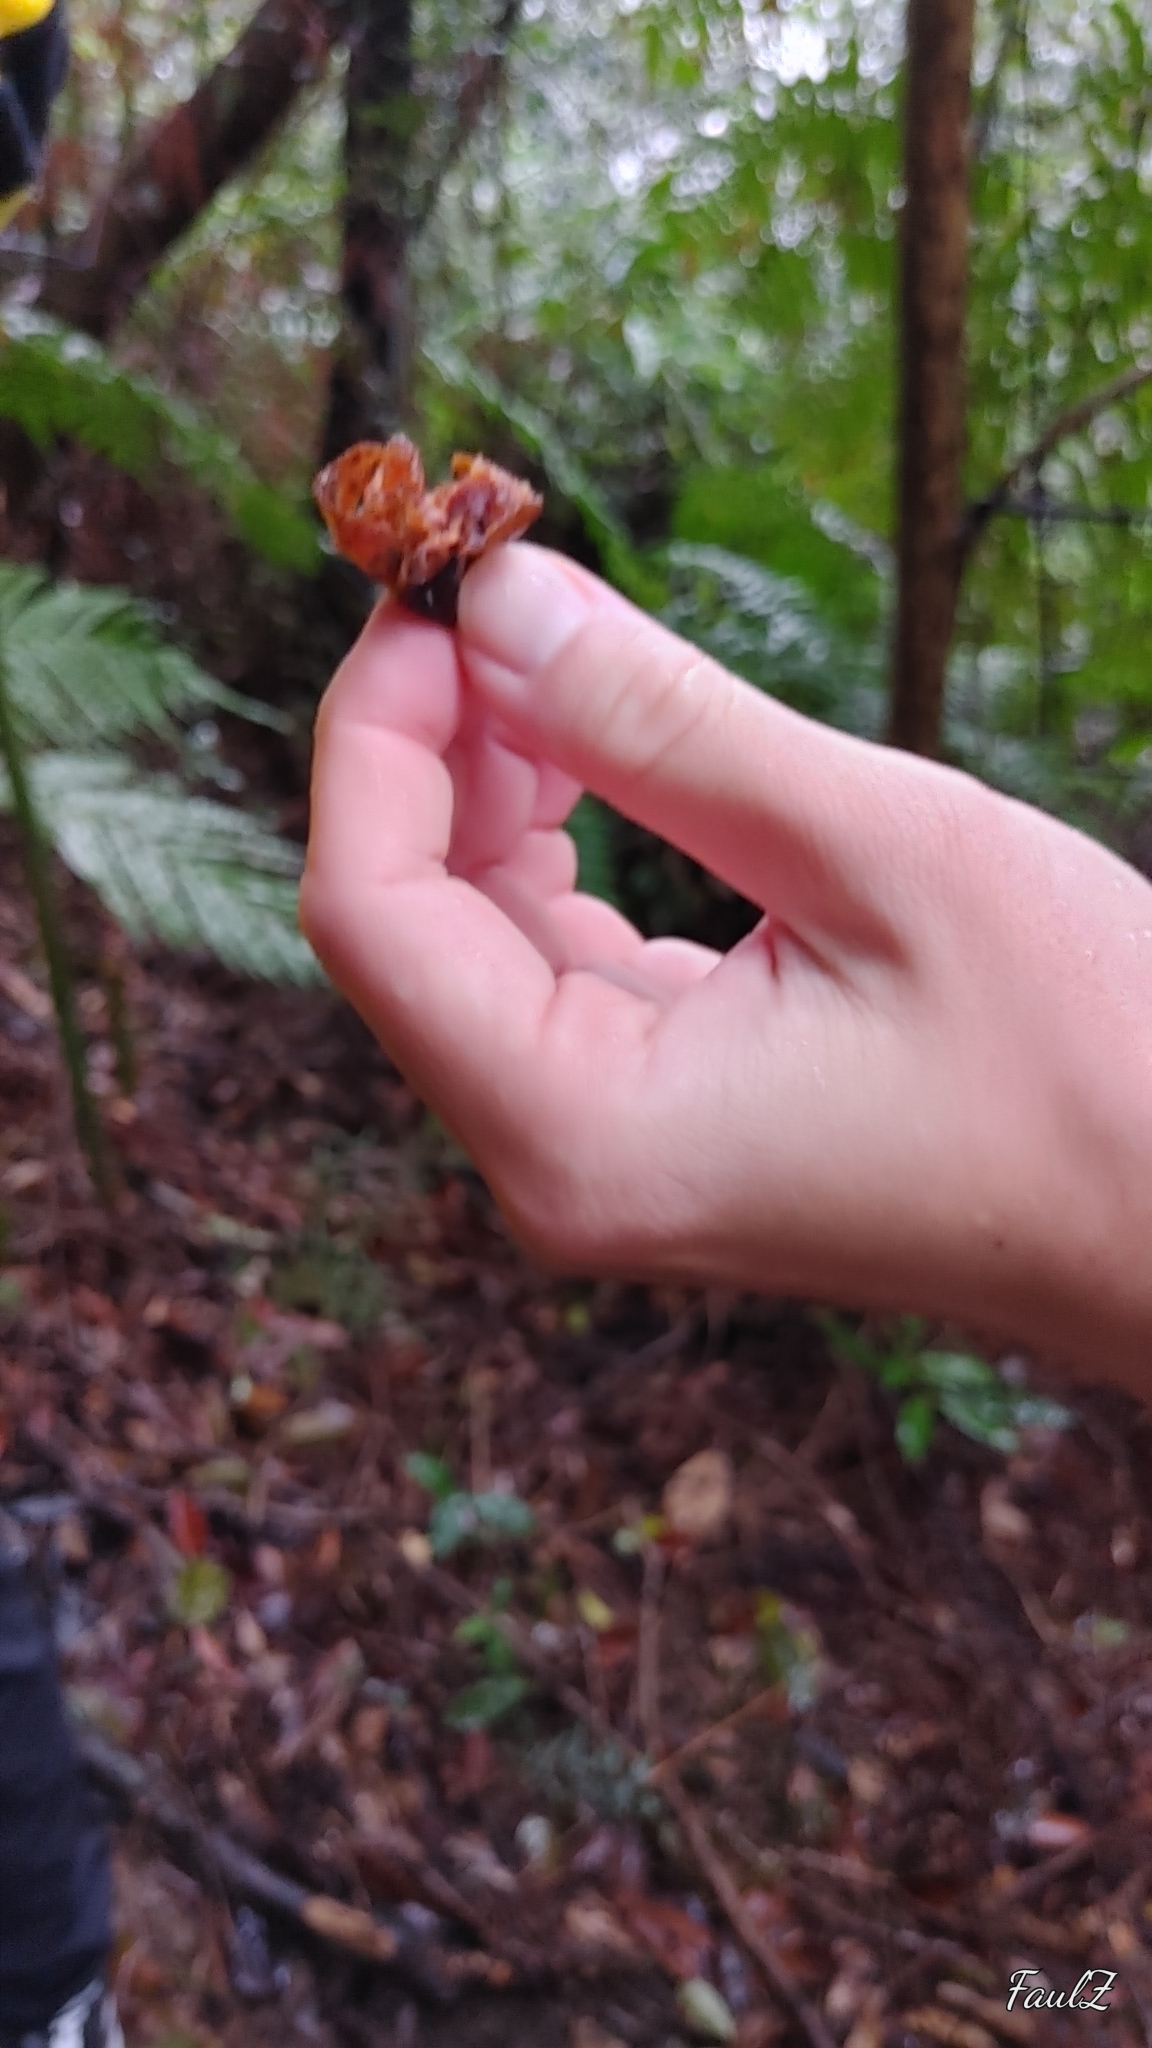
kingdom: Plantae
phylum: Tracheophyta
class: Magnoliopsida
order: Ericales
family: Ebenaceae
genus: Diospyros
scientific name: Diospyros morrisiana
